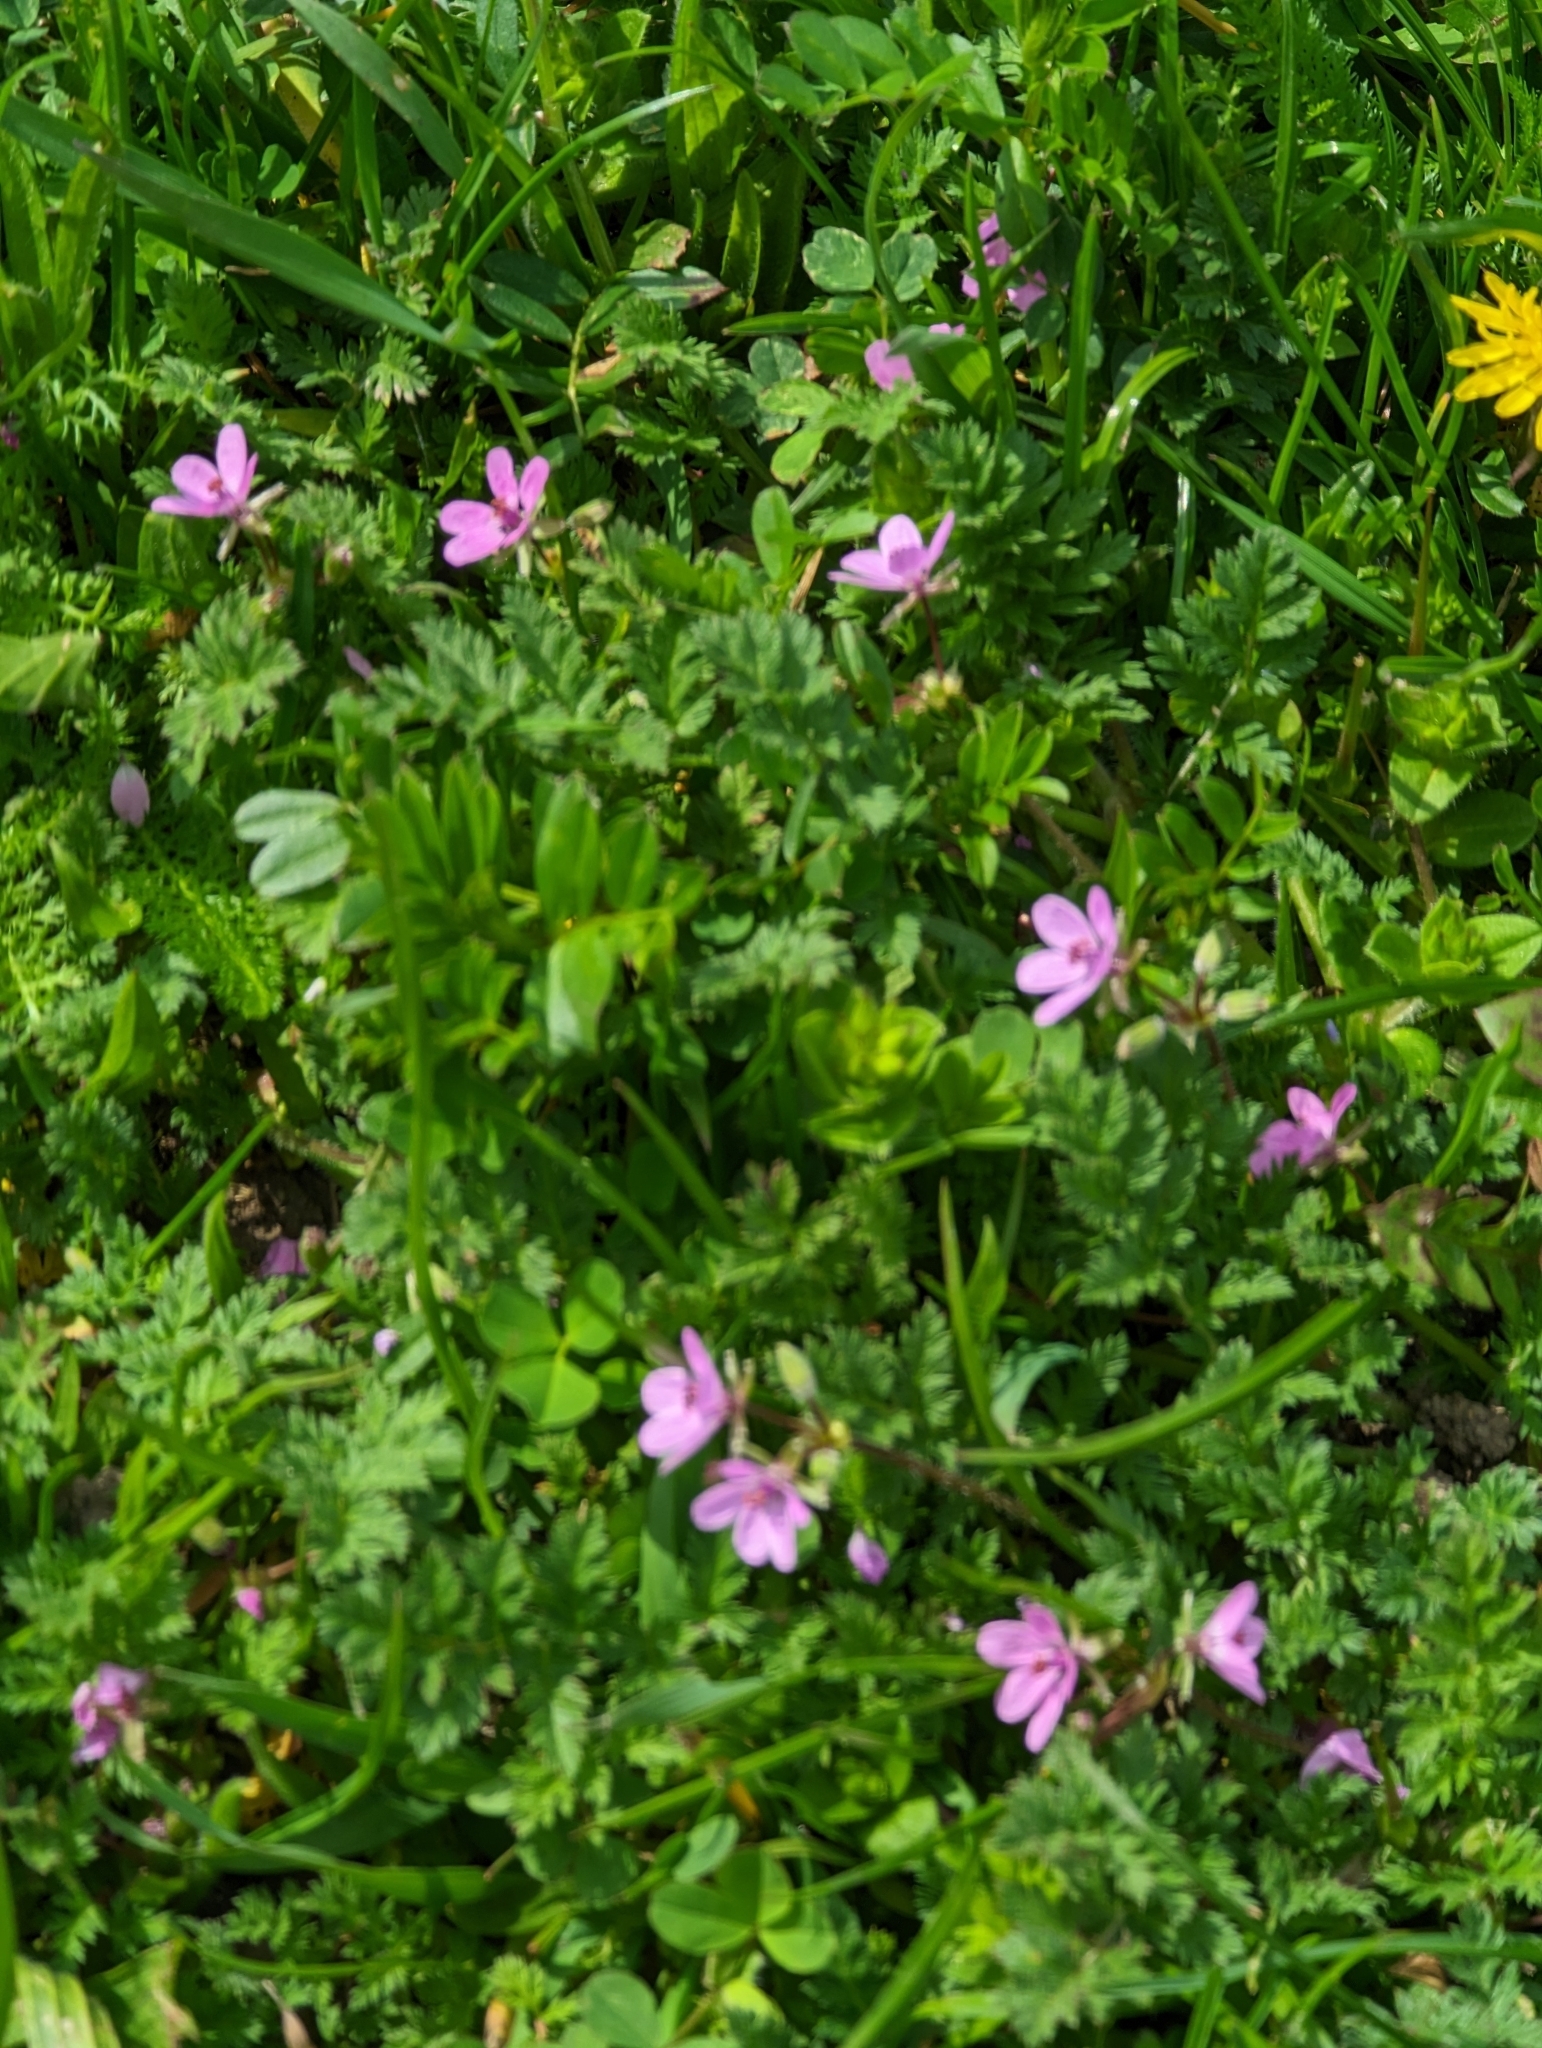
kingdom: Plantae
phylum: Tracheophyta
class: Magnoliopsida
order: Geraniales
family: Geraniaceae
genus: Erodium
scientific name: Erodium cicutarium
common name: Common stork's-bill
